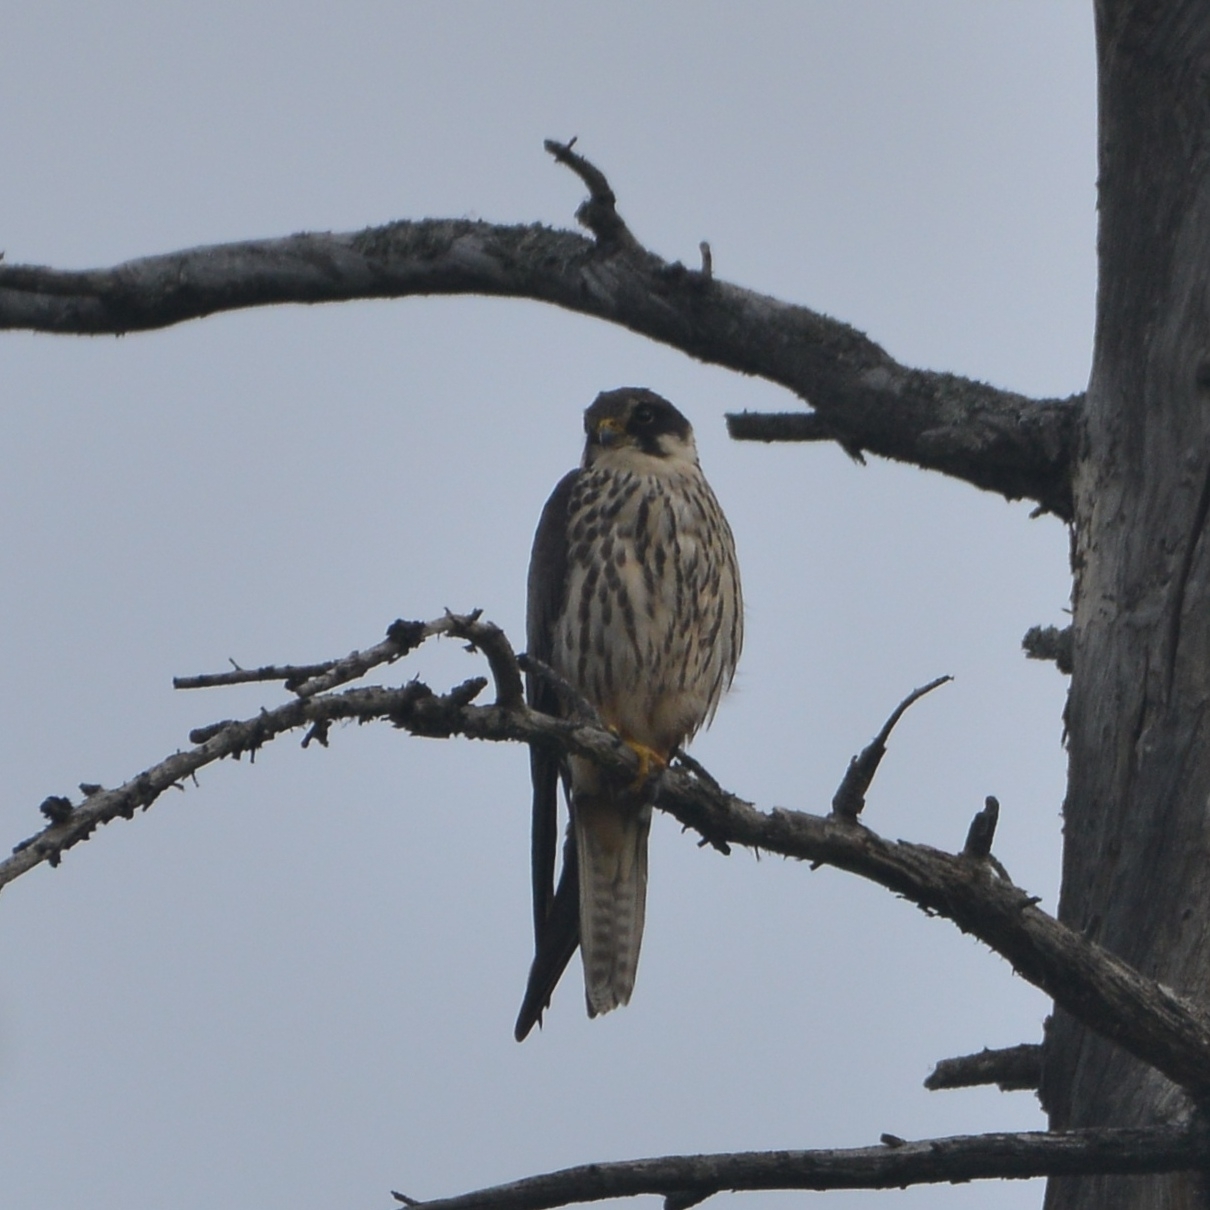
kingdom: Animalia
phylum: Chordata
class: Aves
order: Falconiformes
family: Falconidae
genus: Falco
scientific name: Falco subbuteo
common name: Eurasian hobby
